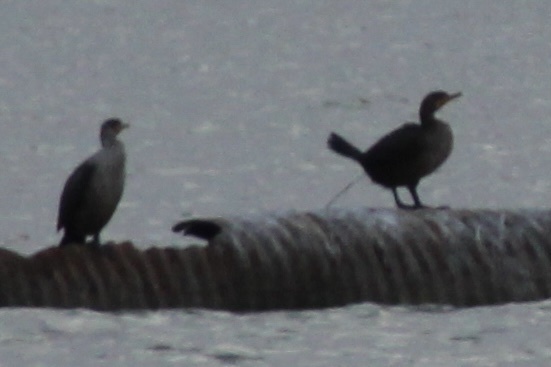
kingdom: Animalia
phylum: Chordata
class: Aves
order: Suliformes
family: Phalacrocoracidae
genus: Phalacrocorax
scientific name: Phalacrocorax auritus
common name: Double-crested cormorant
